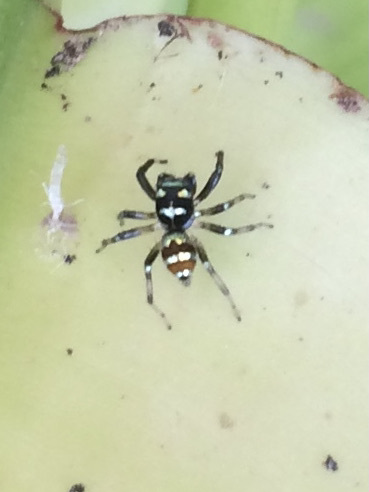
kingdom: Animalia
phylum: Arthropoda
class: Arachnida
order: Araneae
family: Salticidae
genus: Phintella
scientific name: Phintella vittata
